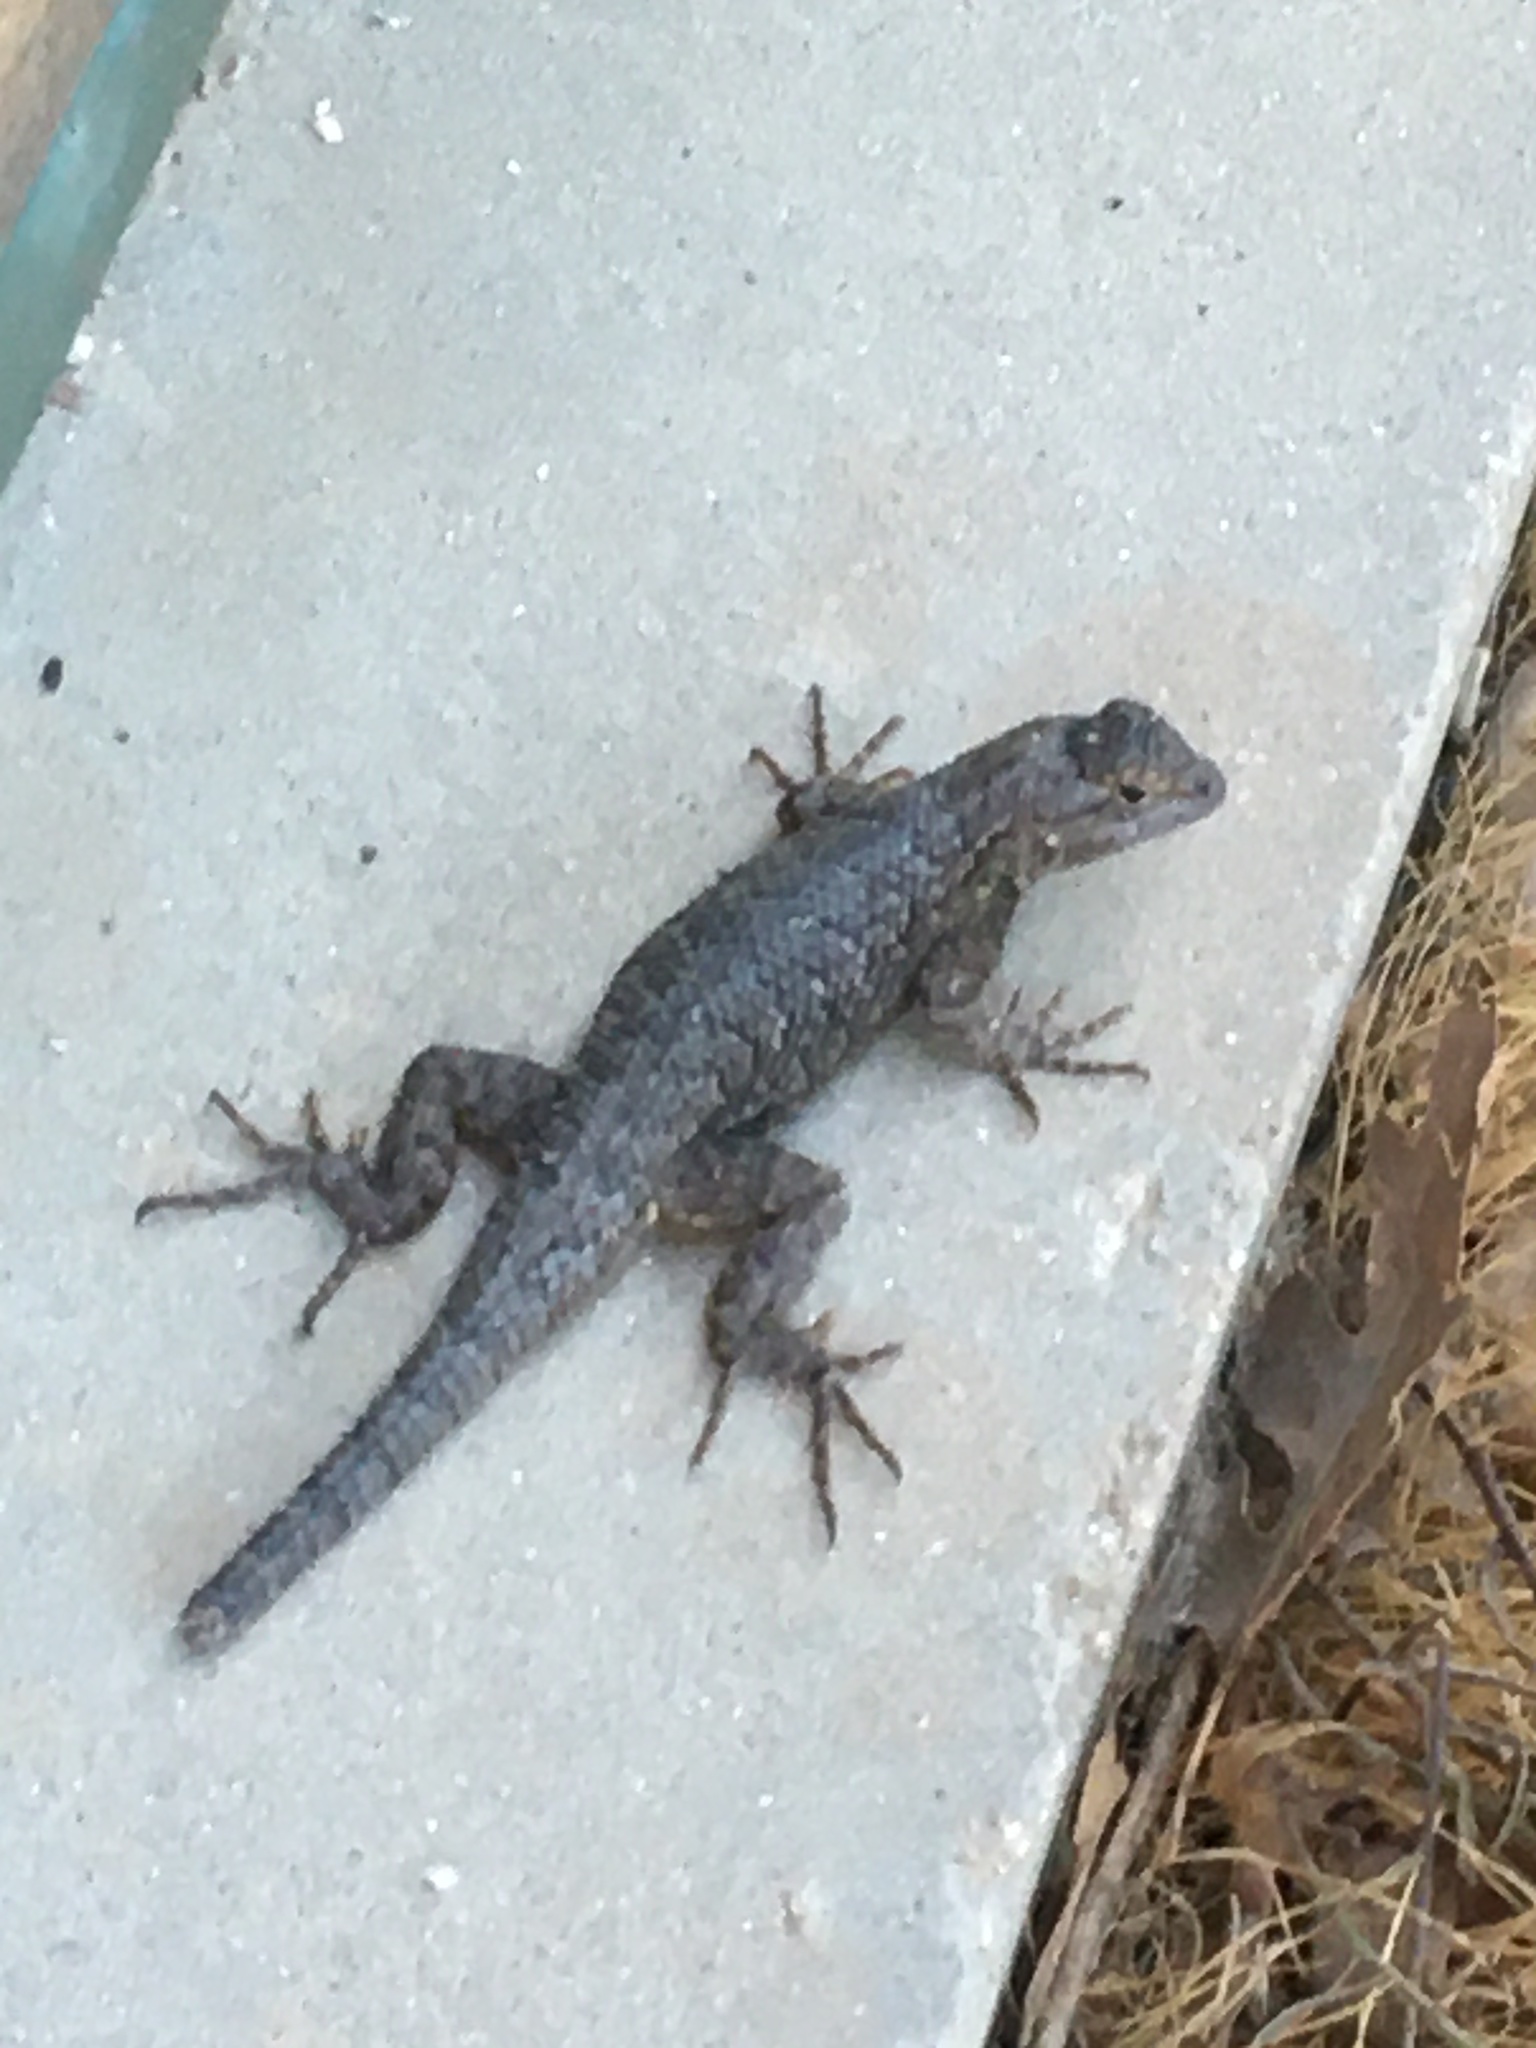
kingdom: Animalia
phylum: Chordata
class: Squamata
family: Phrynosomatidae
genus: Sceloporus
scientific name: Sceloporus occidentalis
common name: Western fence lizard
